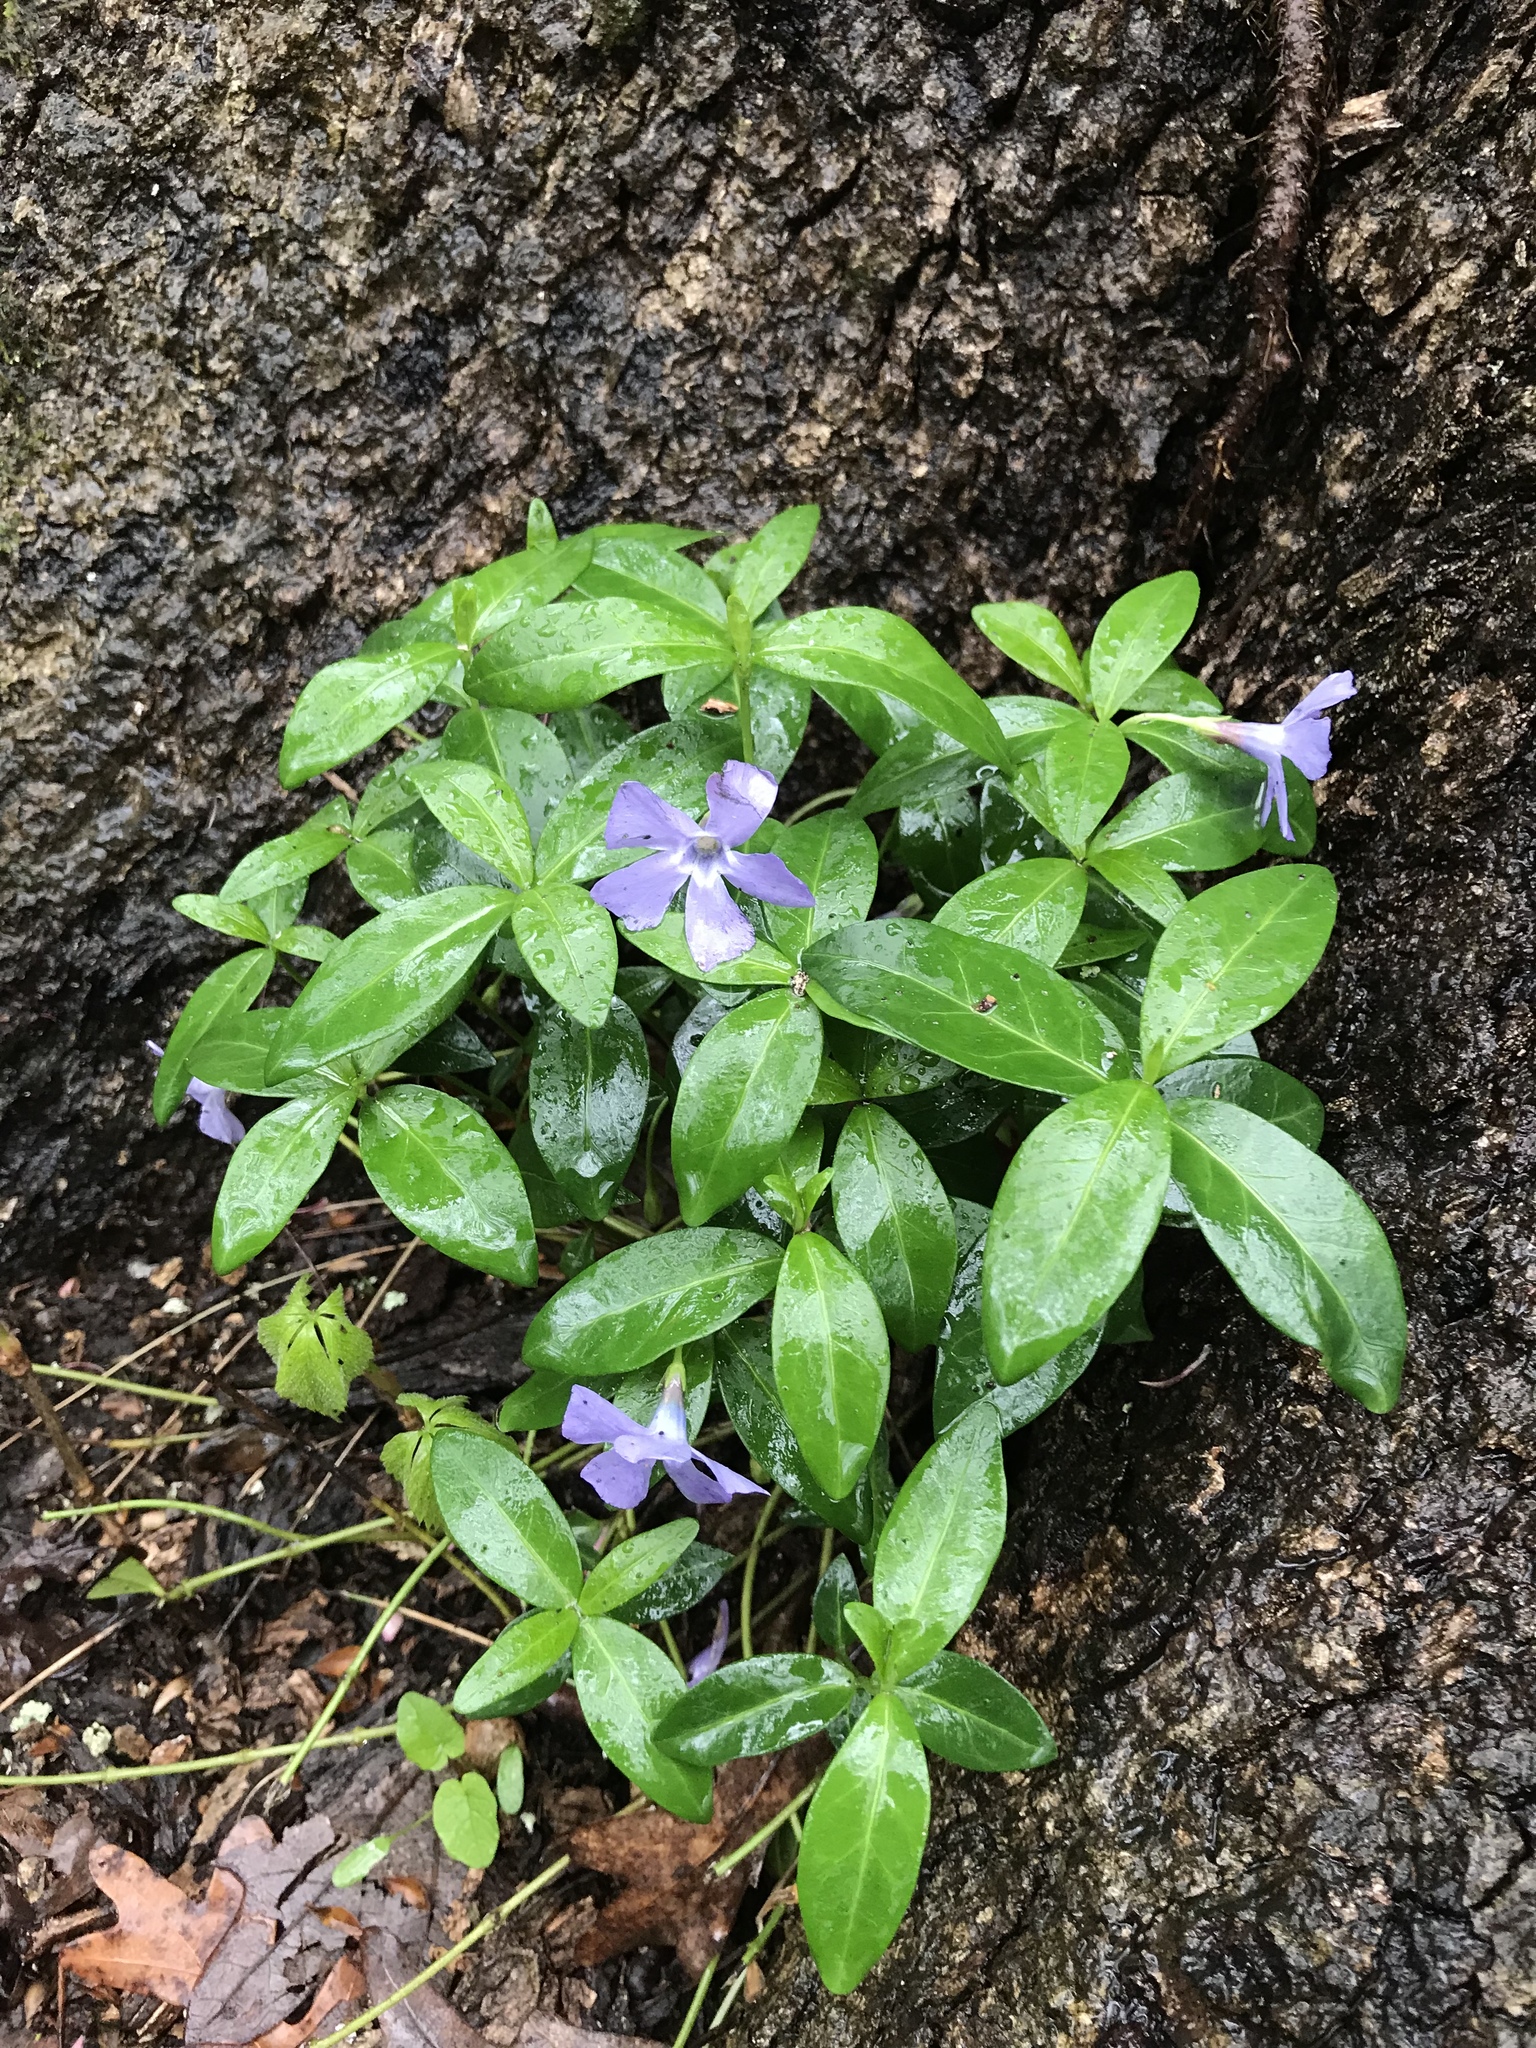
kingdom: Plantae
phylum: Tracheophyta
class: Magnoliopsida
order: Gentianales
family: Apocynaceae
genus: Vinca
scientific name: Vinca minor
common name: Lesser periwinkle
